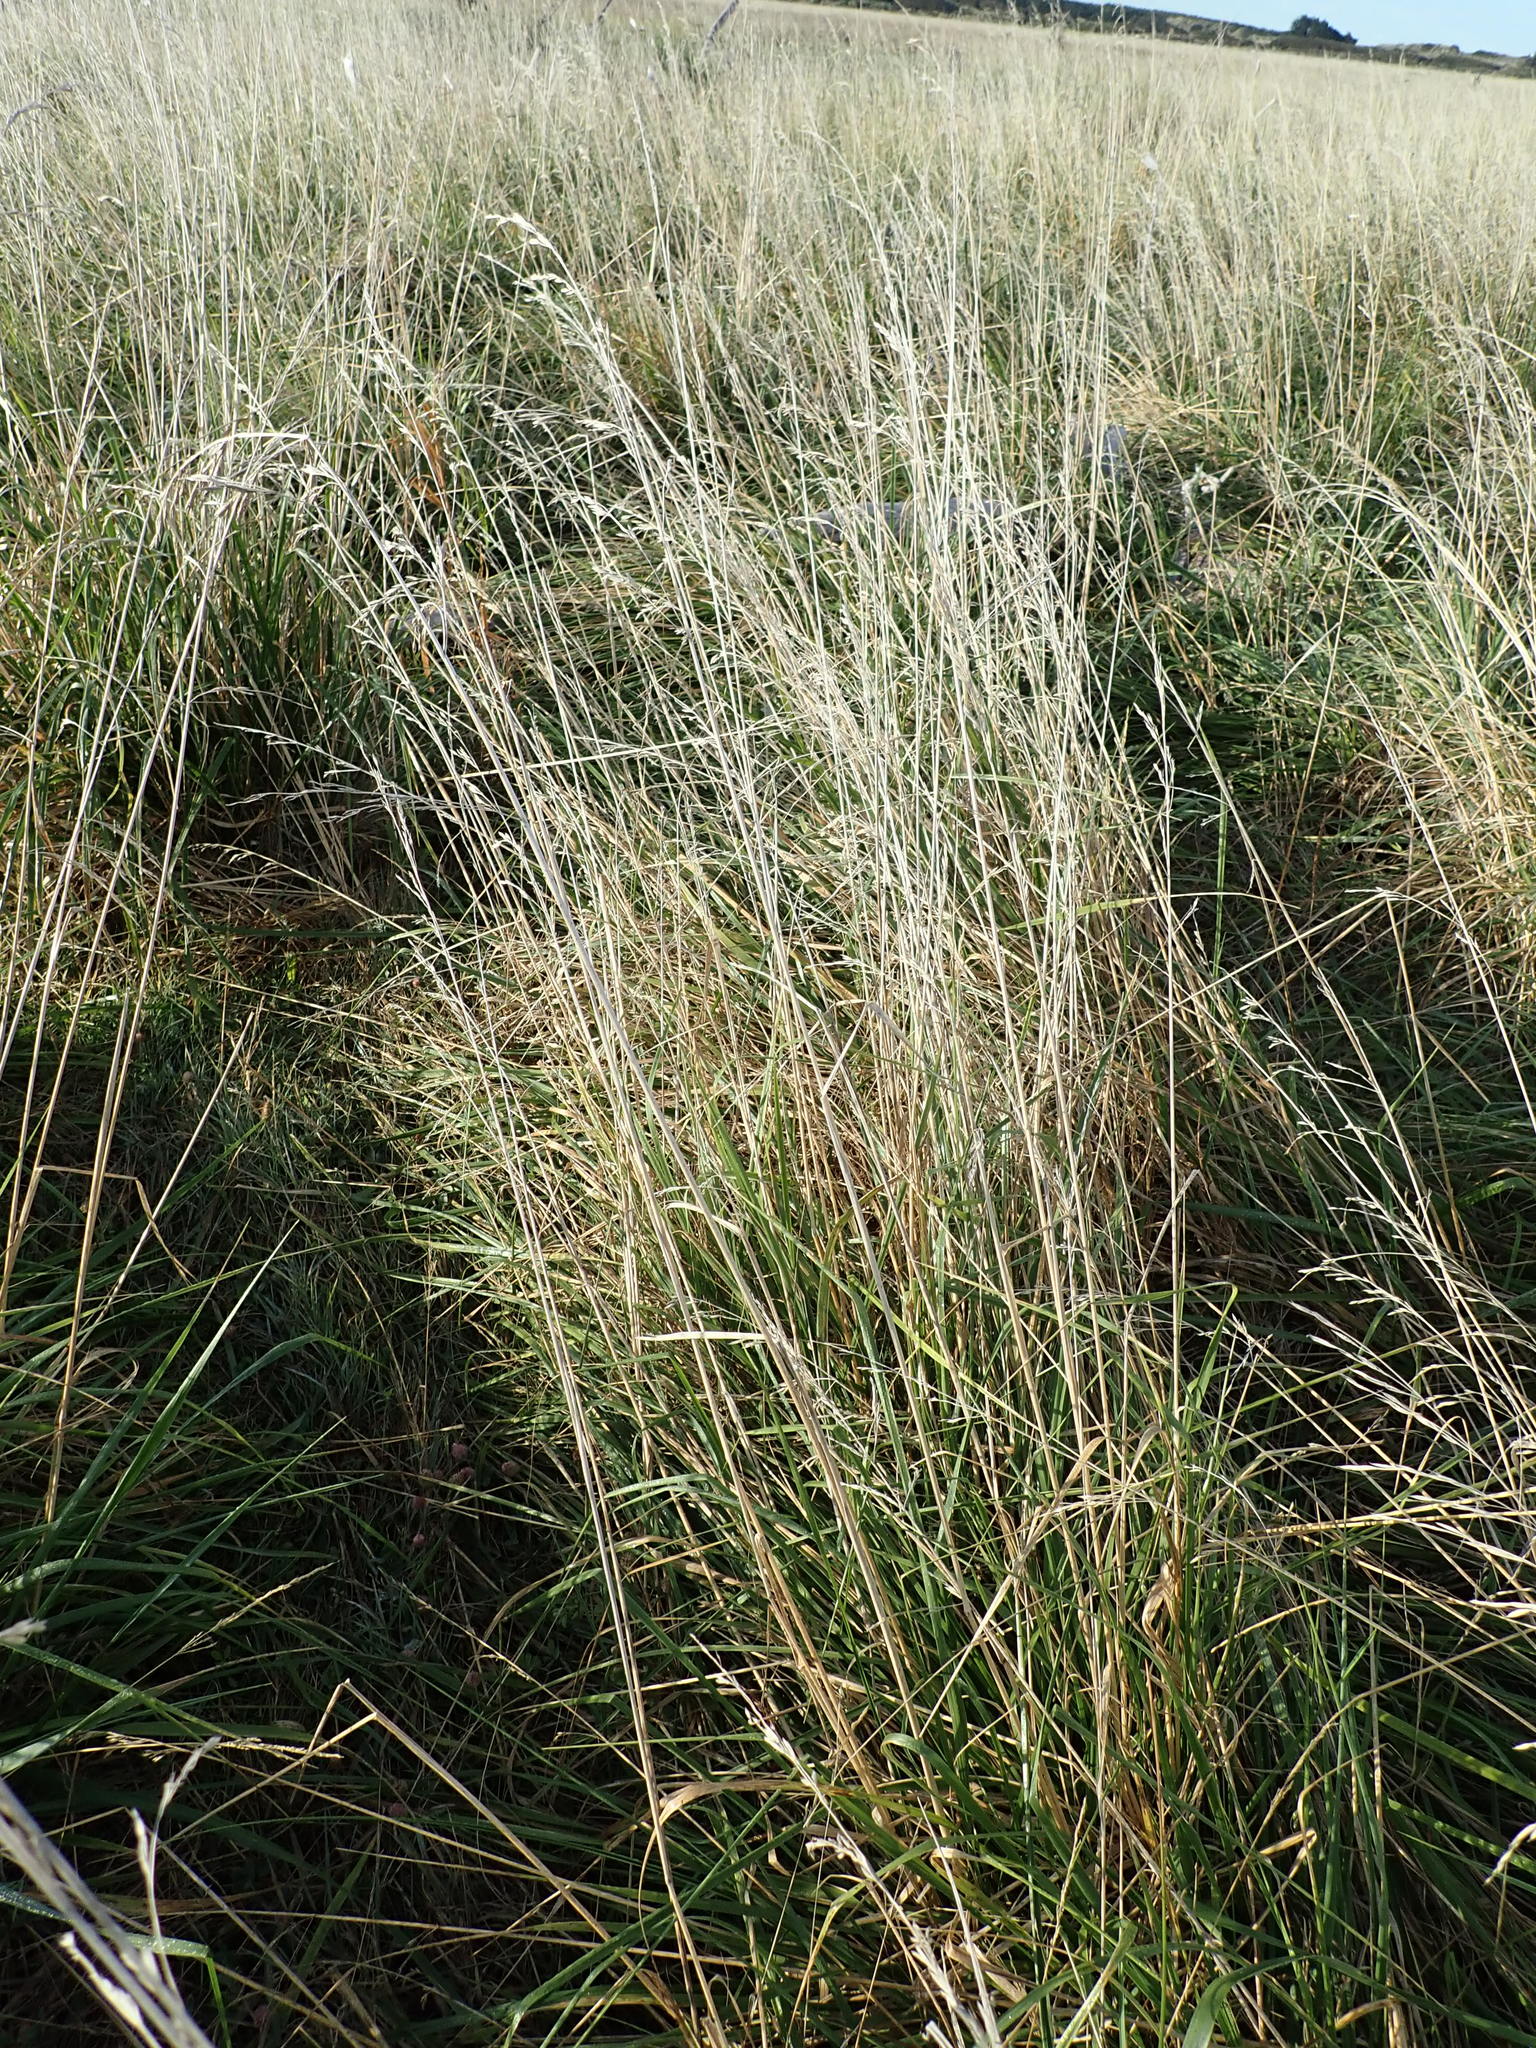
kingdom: Plantae
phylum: Tracheophyta
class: Liliopsida
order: Poales
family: Poaceae
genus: Lolium
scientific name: Lolium arundinaceum
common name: Reed fescue
